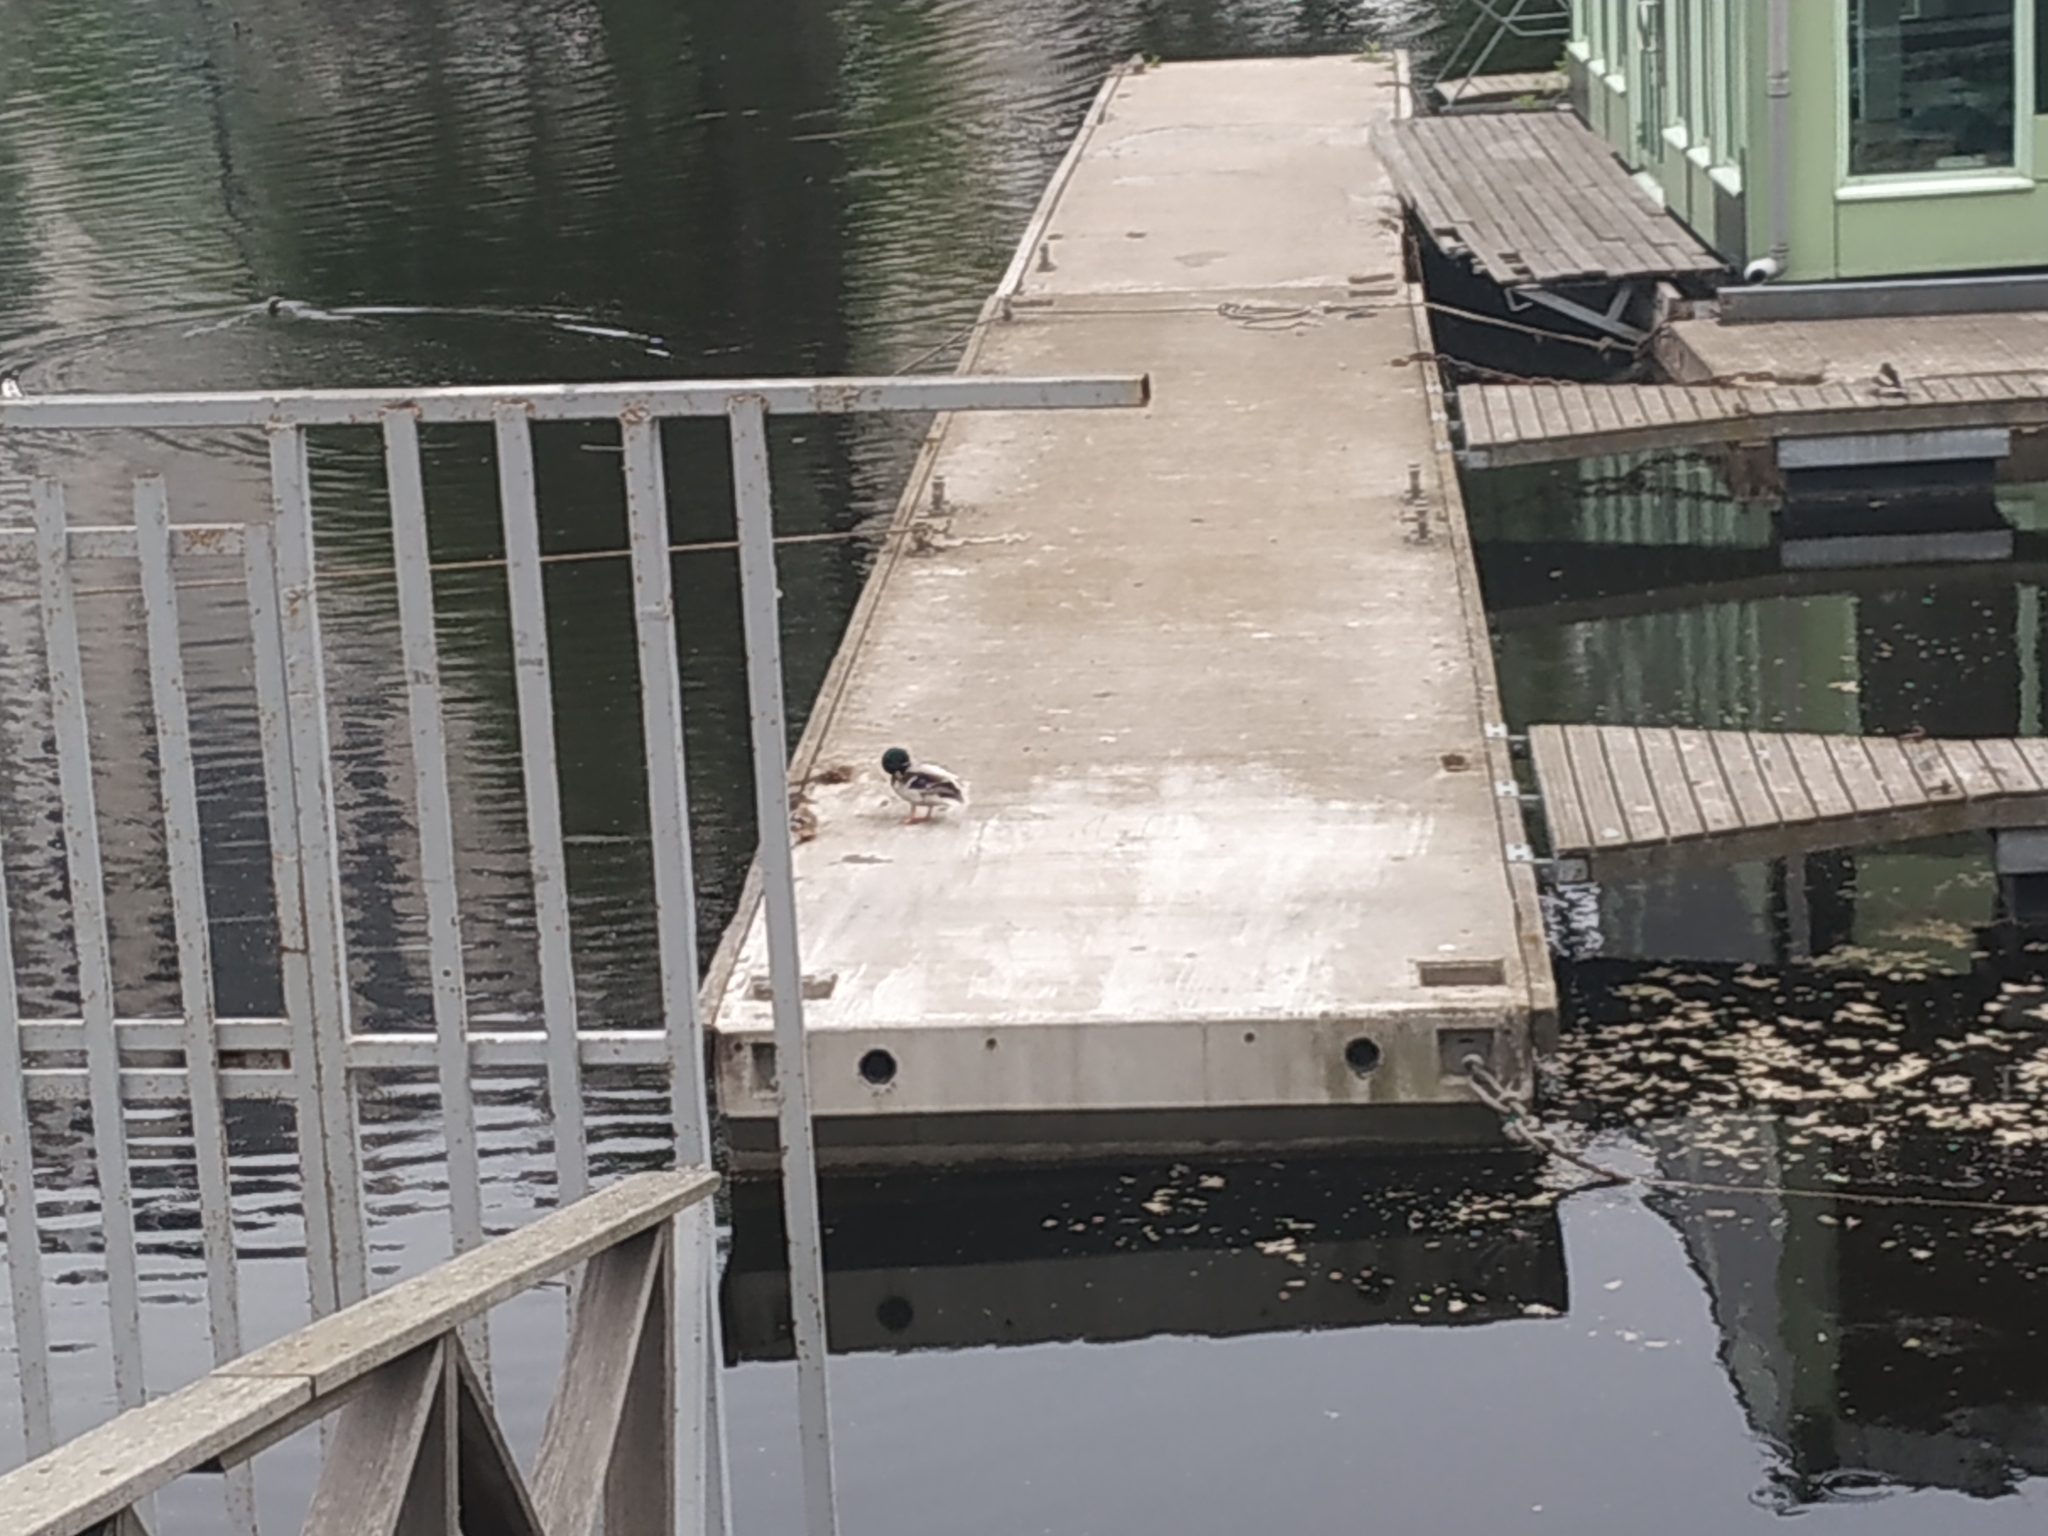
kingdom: Animalia
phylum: Chordata
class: Aves
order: Anseriformes
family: Anatidae
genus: Anas
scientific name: Anas platyrhynchos
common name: Mallard
